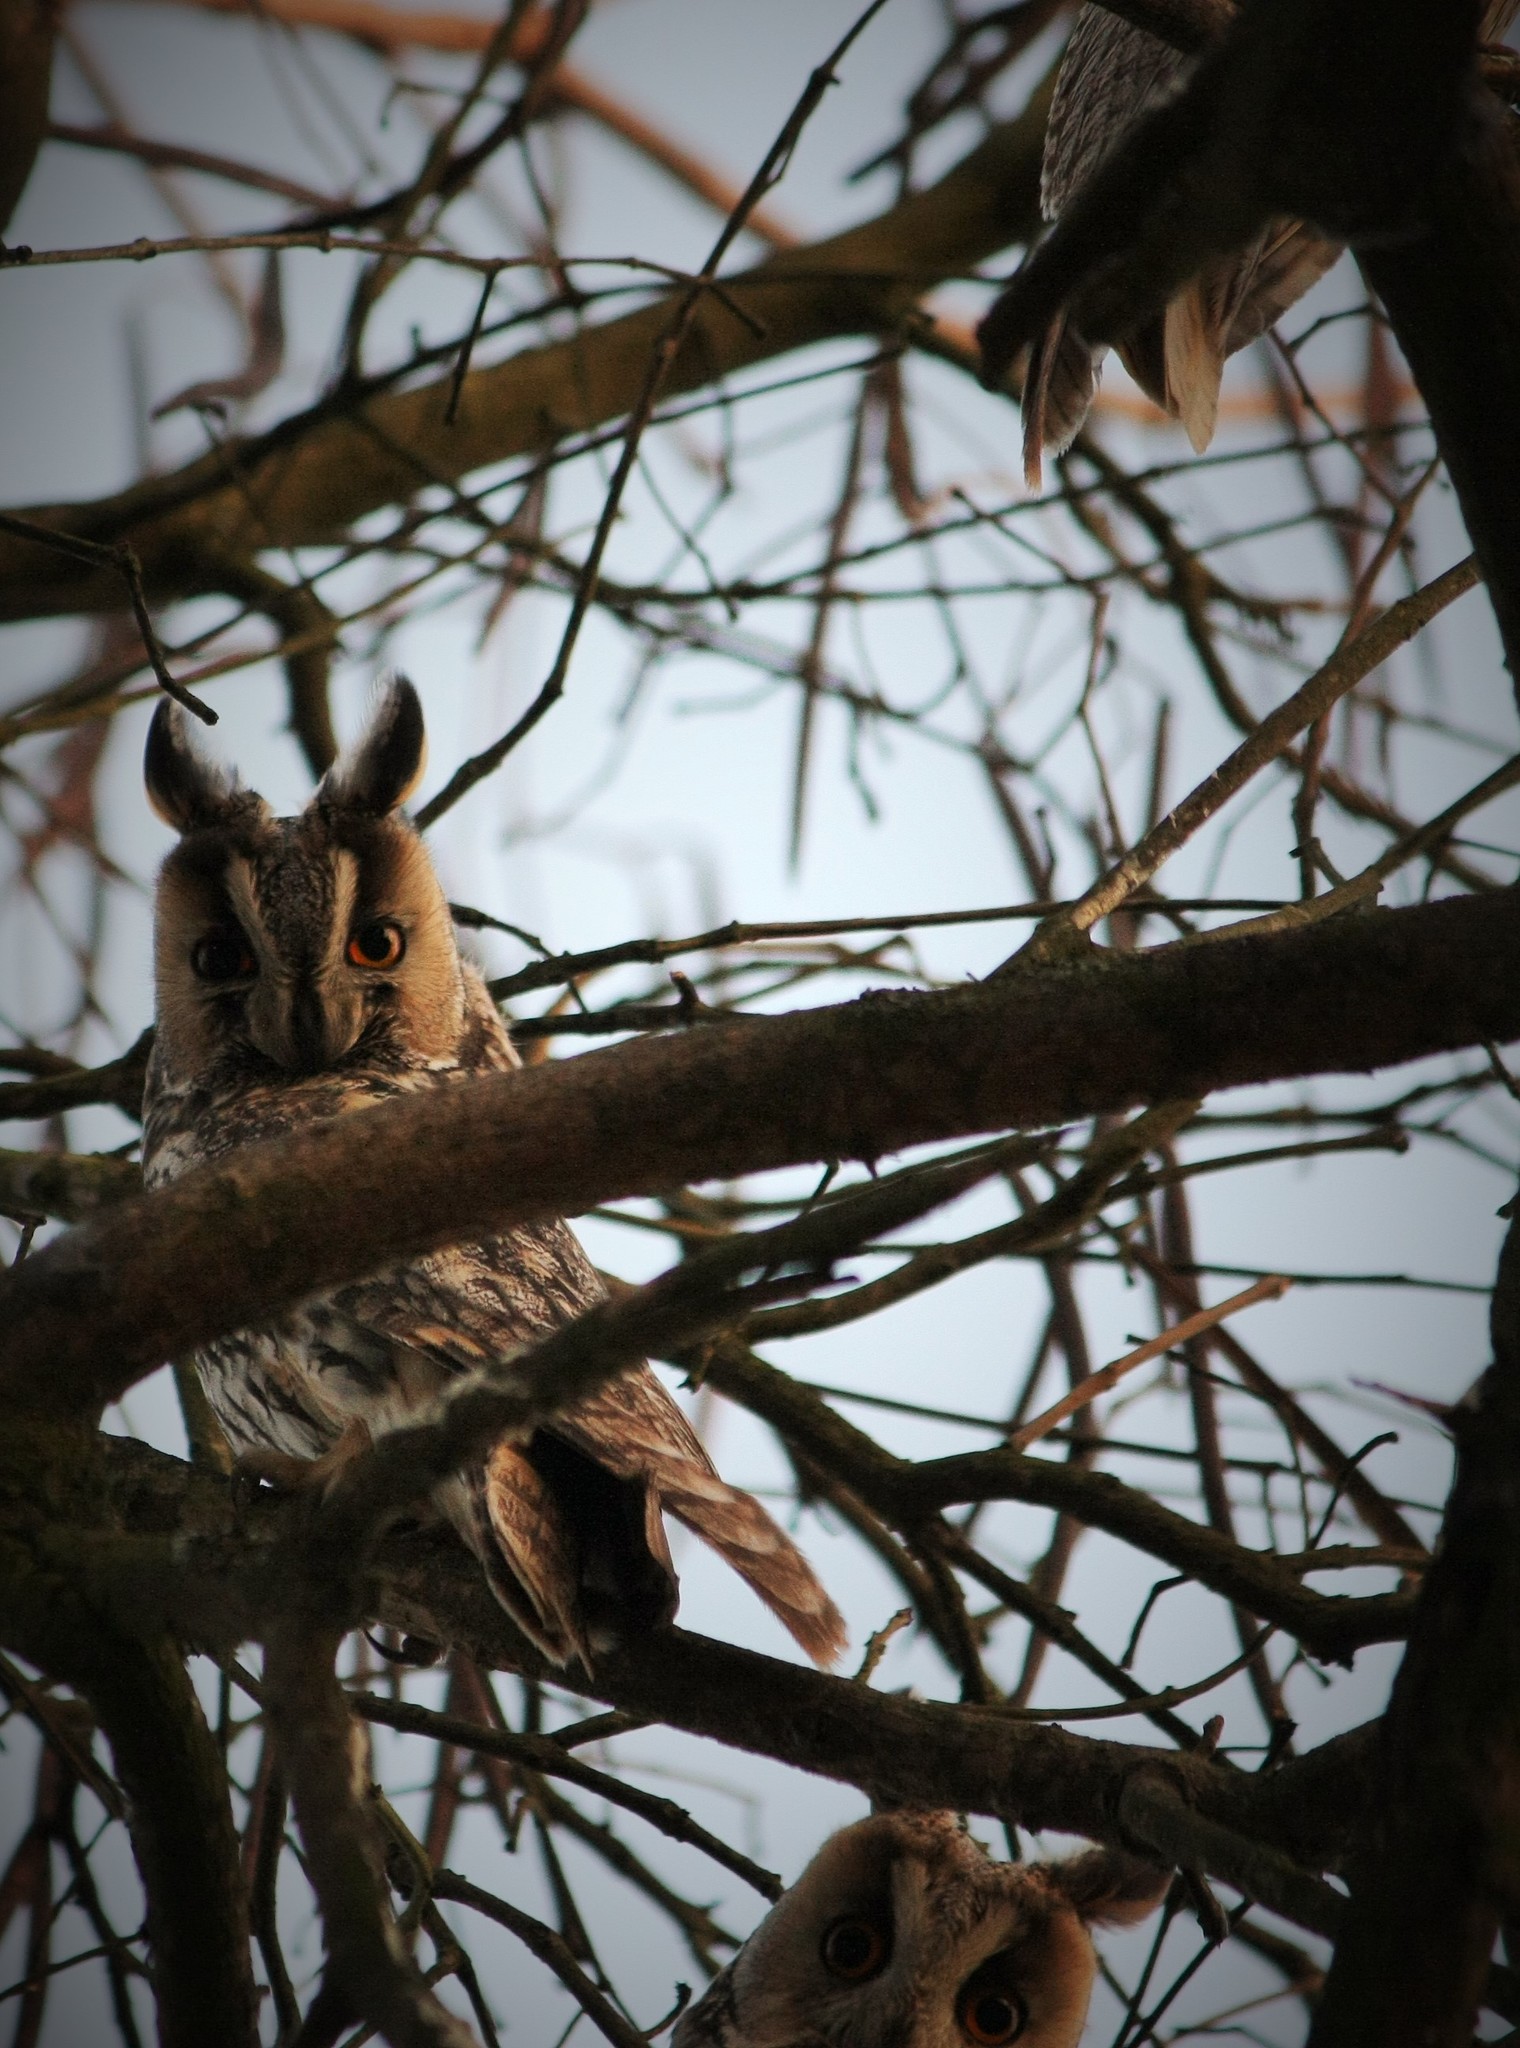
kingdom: Animalia
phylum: Chordata
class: Aves
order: Strigiformes
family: Strigidae
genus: Asio
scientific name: Asio otus
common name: Long-eared owl
